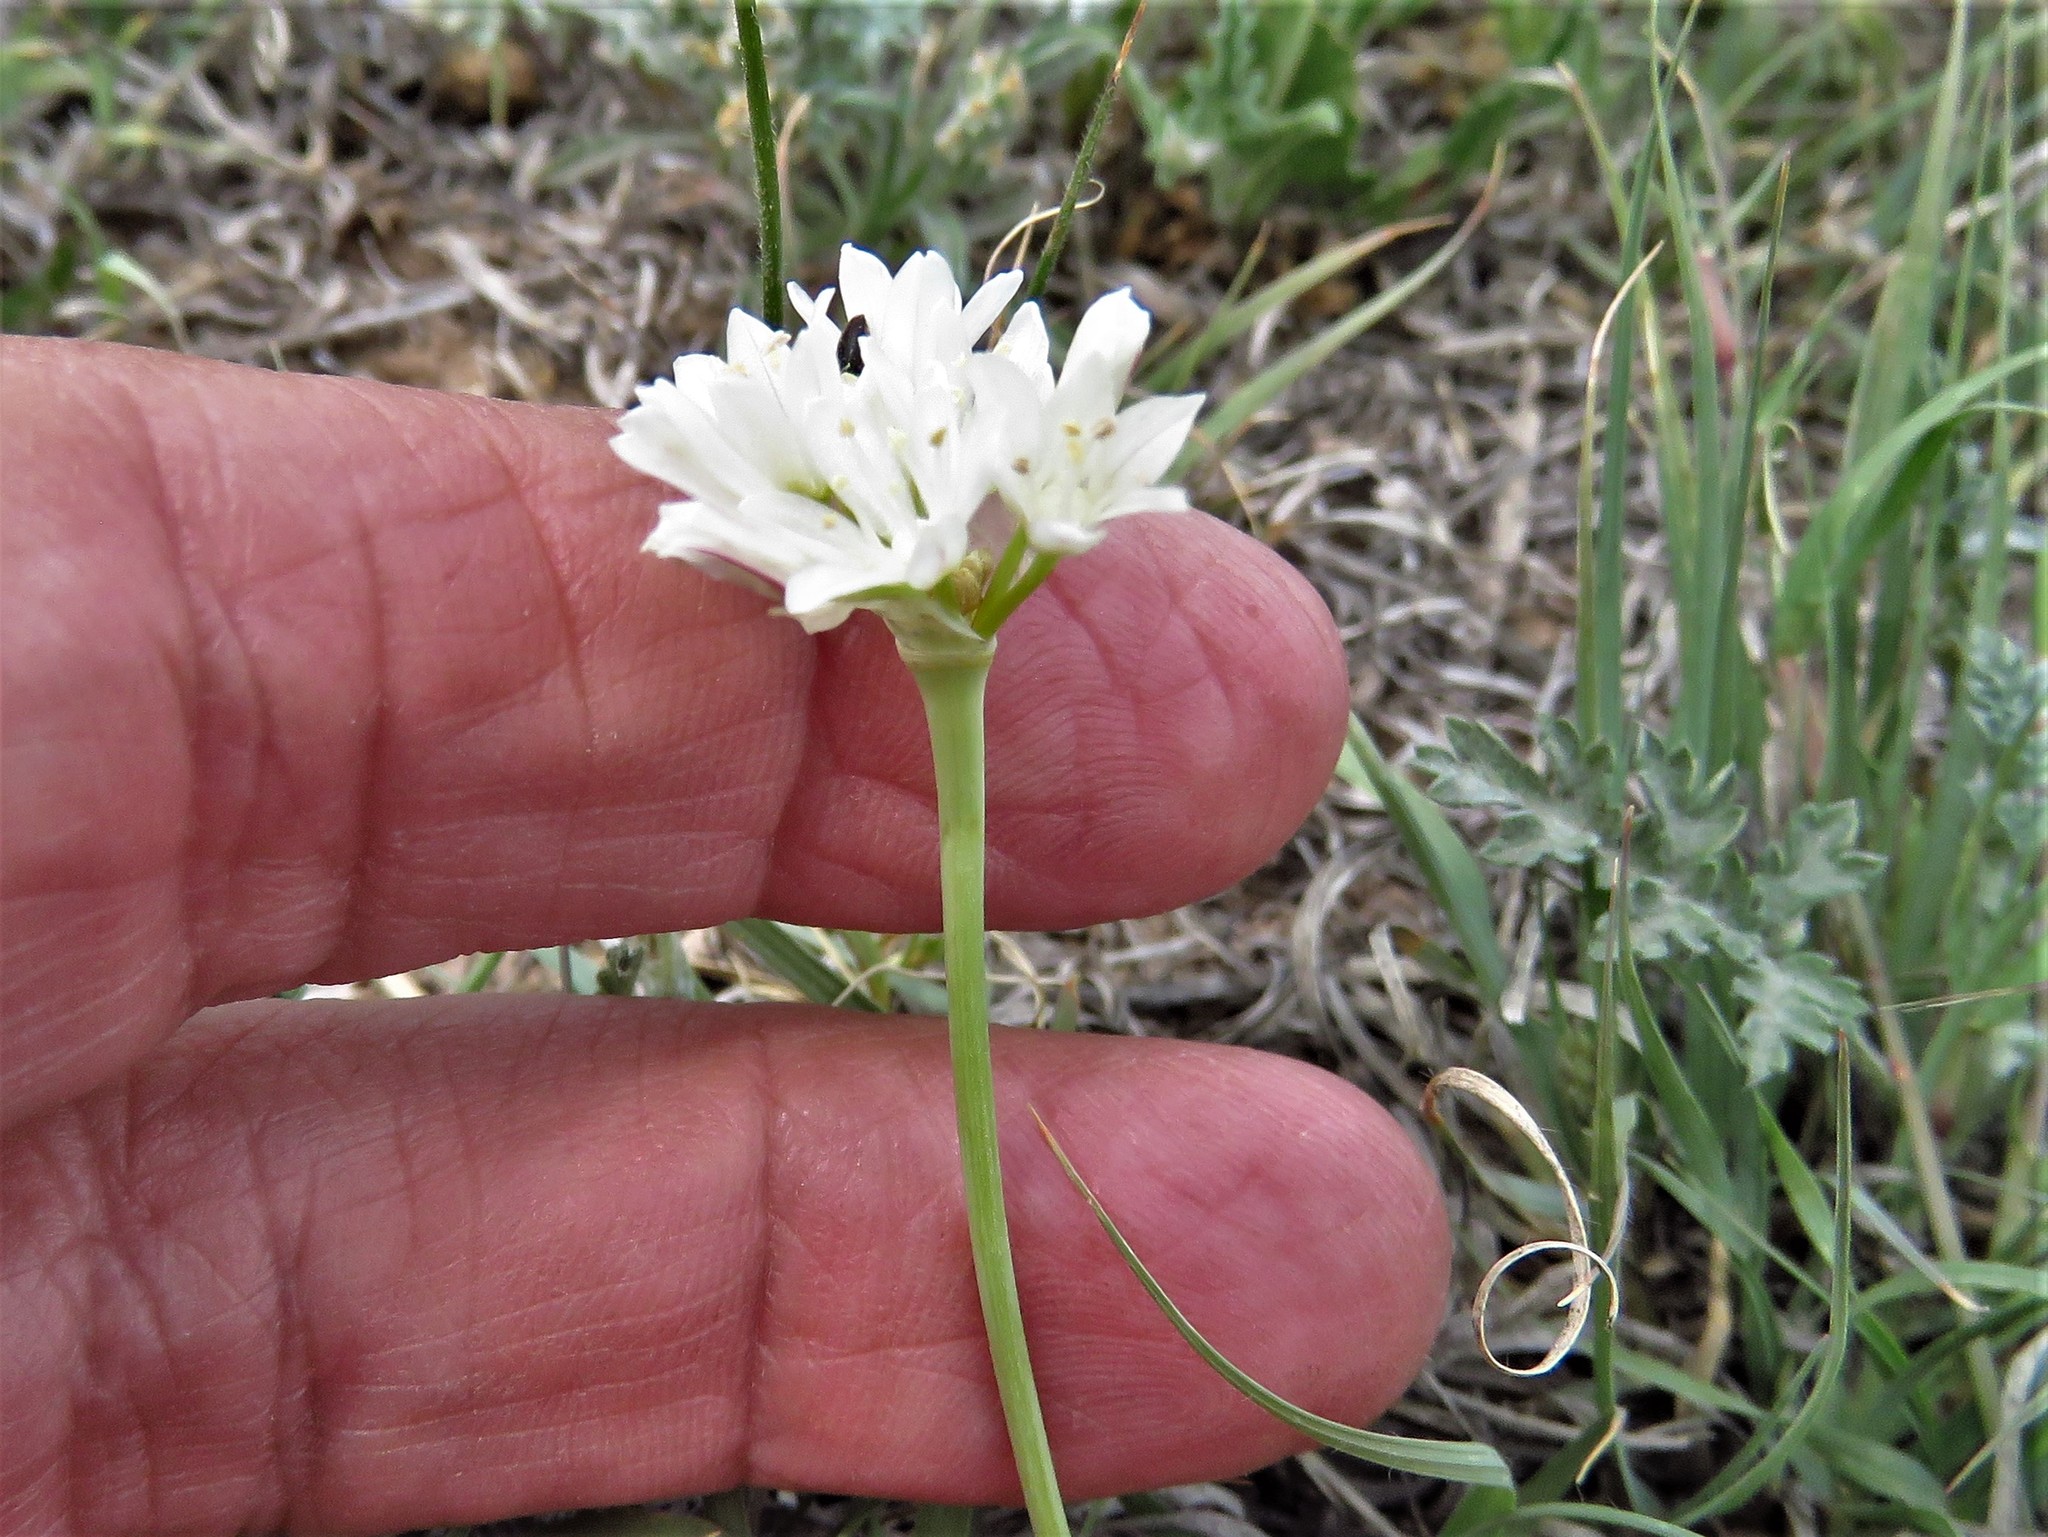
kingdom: Plantae
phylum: Tracheophyta
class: Liliopsida
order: Asparagales
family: Amaryllidaceae
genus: Allium
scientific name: Allium drummondii
